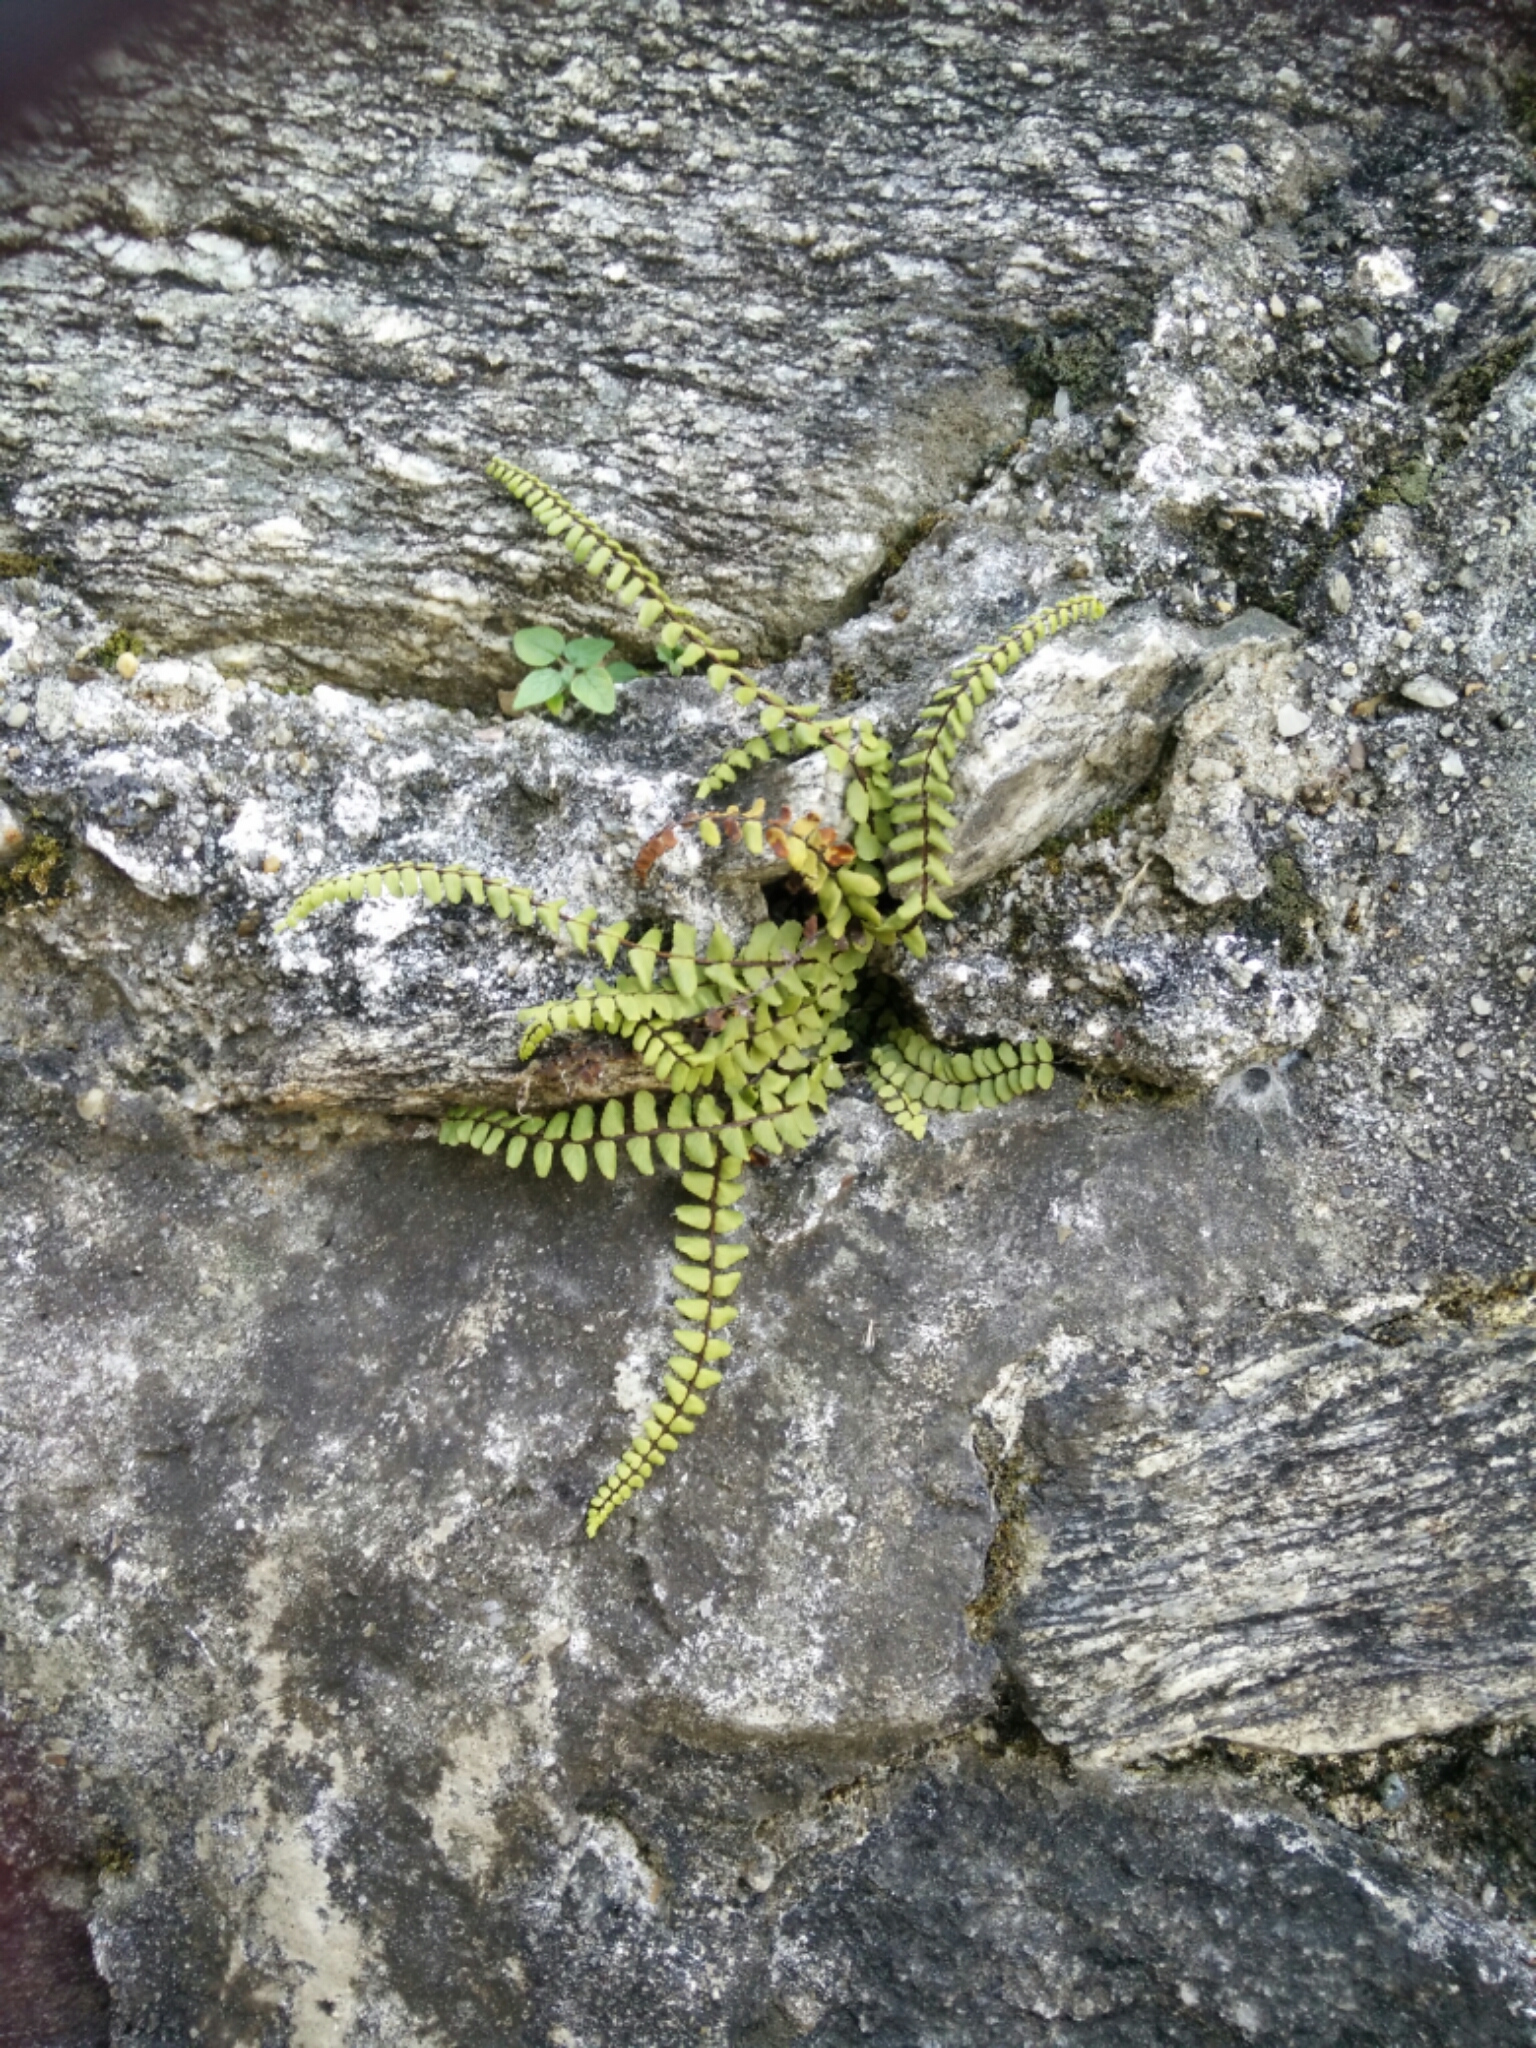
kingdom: Plantae
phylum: Tracheophyta
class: Polypodiopsida
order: Polypodiales
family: Aspleniaceae
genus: Asplenium
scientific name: Asplenium trichomanes
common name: Maidenhair spleenwort
